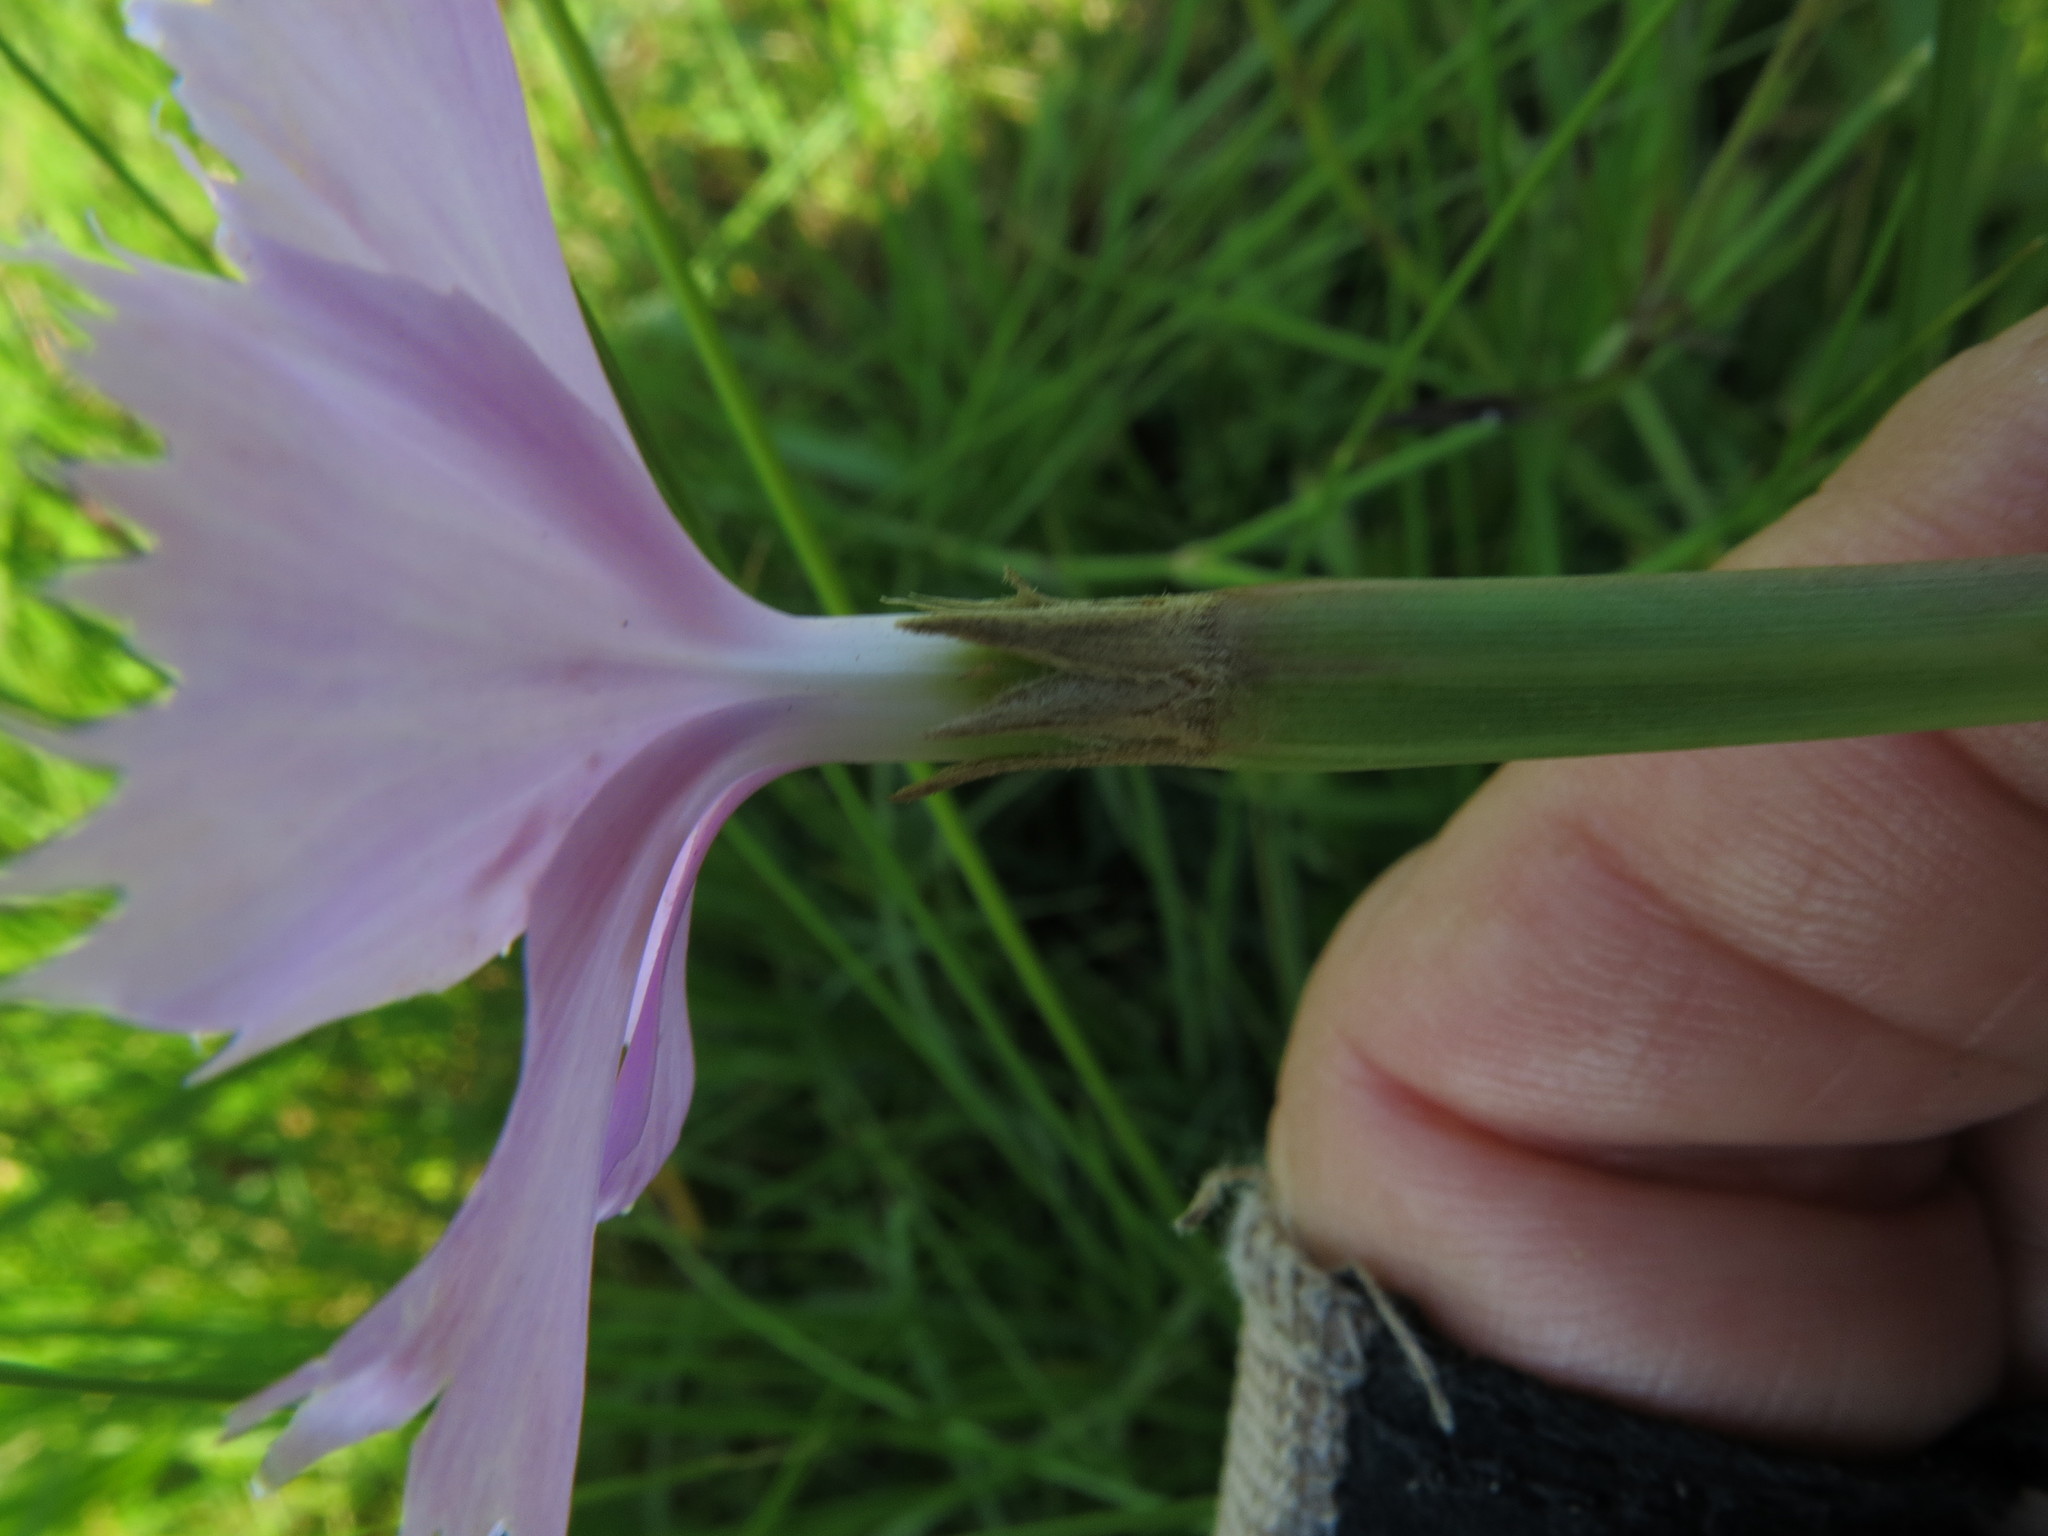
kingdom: Plantae
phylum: Tracheophyta
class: Magnoliopsida
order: Caryophyllales
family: Caryophyllaceae
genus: Dianthus
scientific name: Dianthus zeyheri
